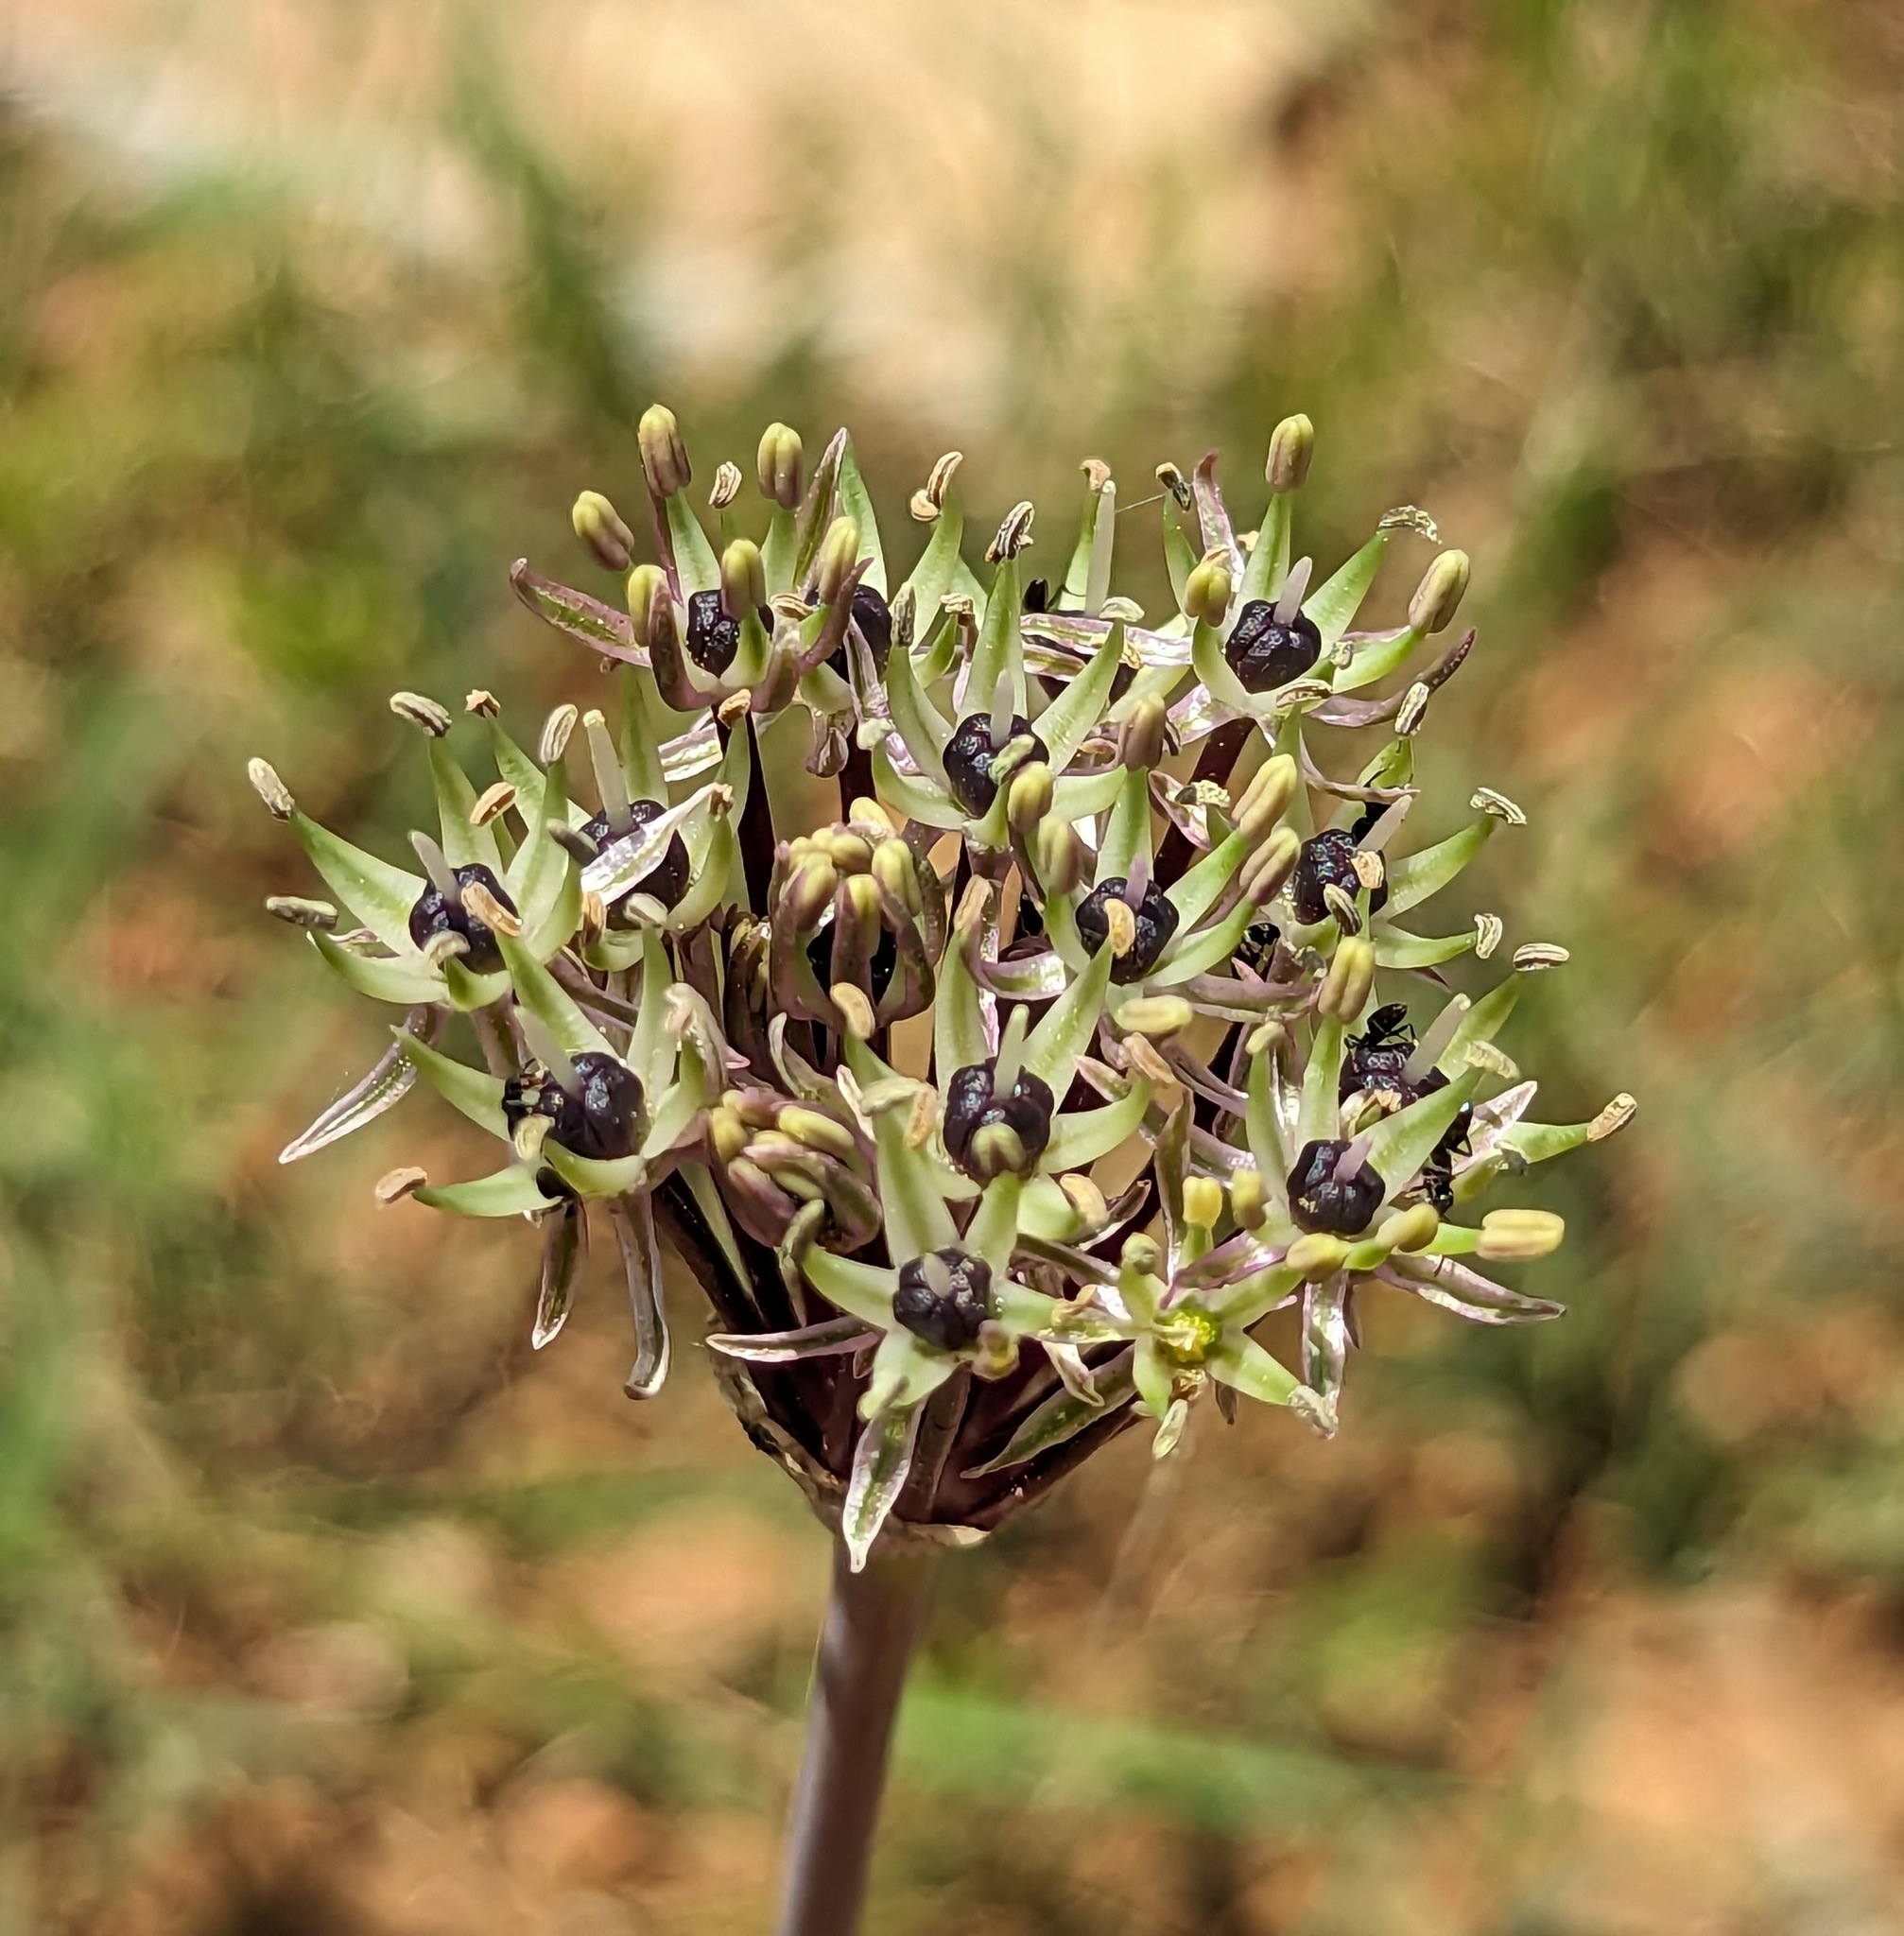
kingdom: Plantae
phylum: Tracheophyta
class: Liliopsida
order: Asparagales
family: Amaryllidaceae
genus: Allium
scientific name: Allium cyrilli
